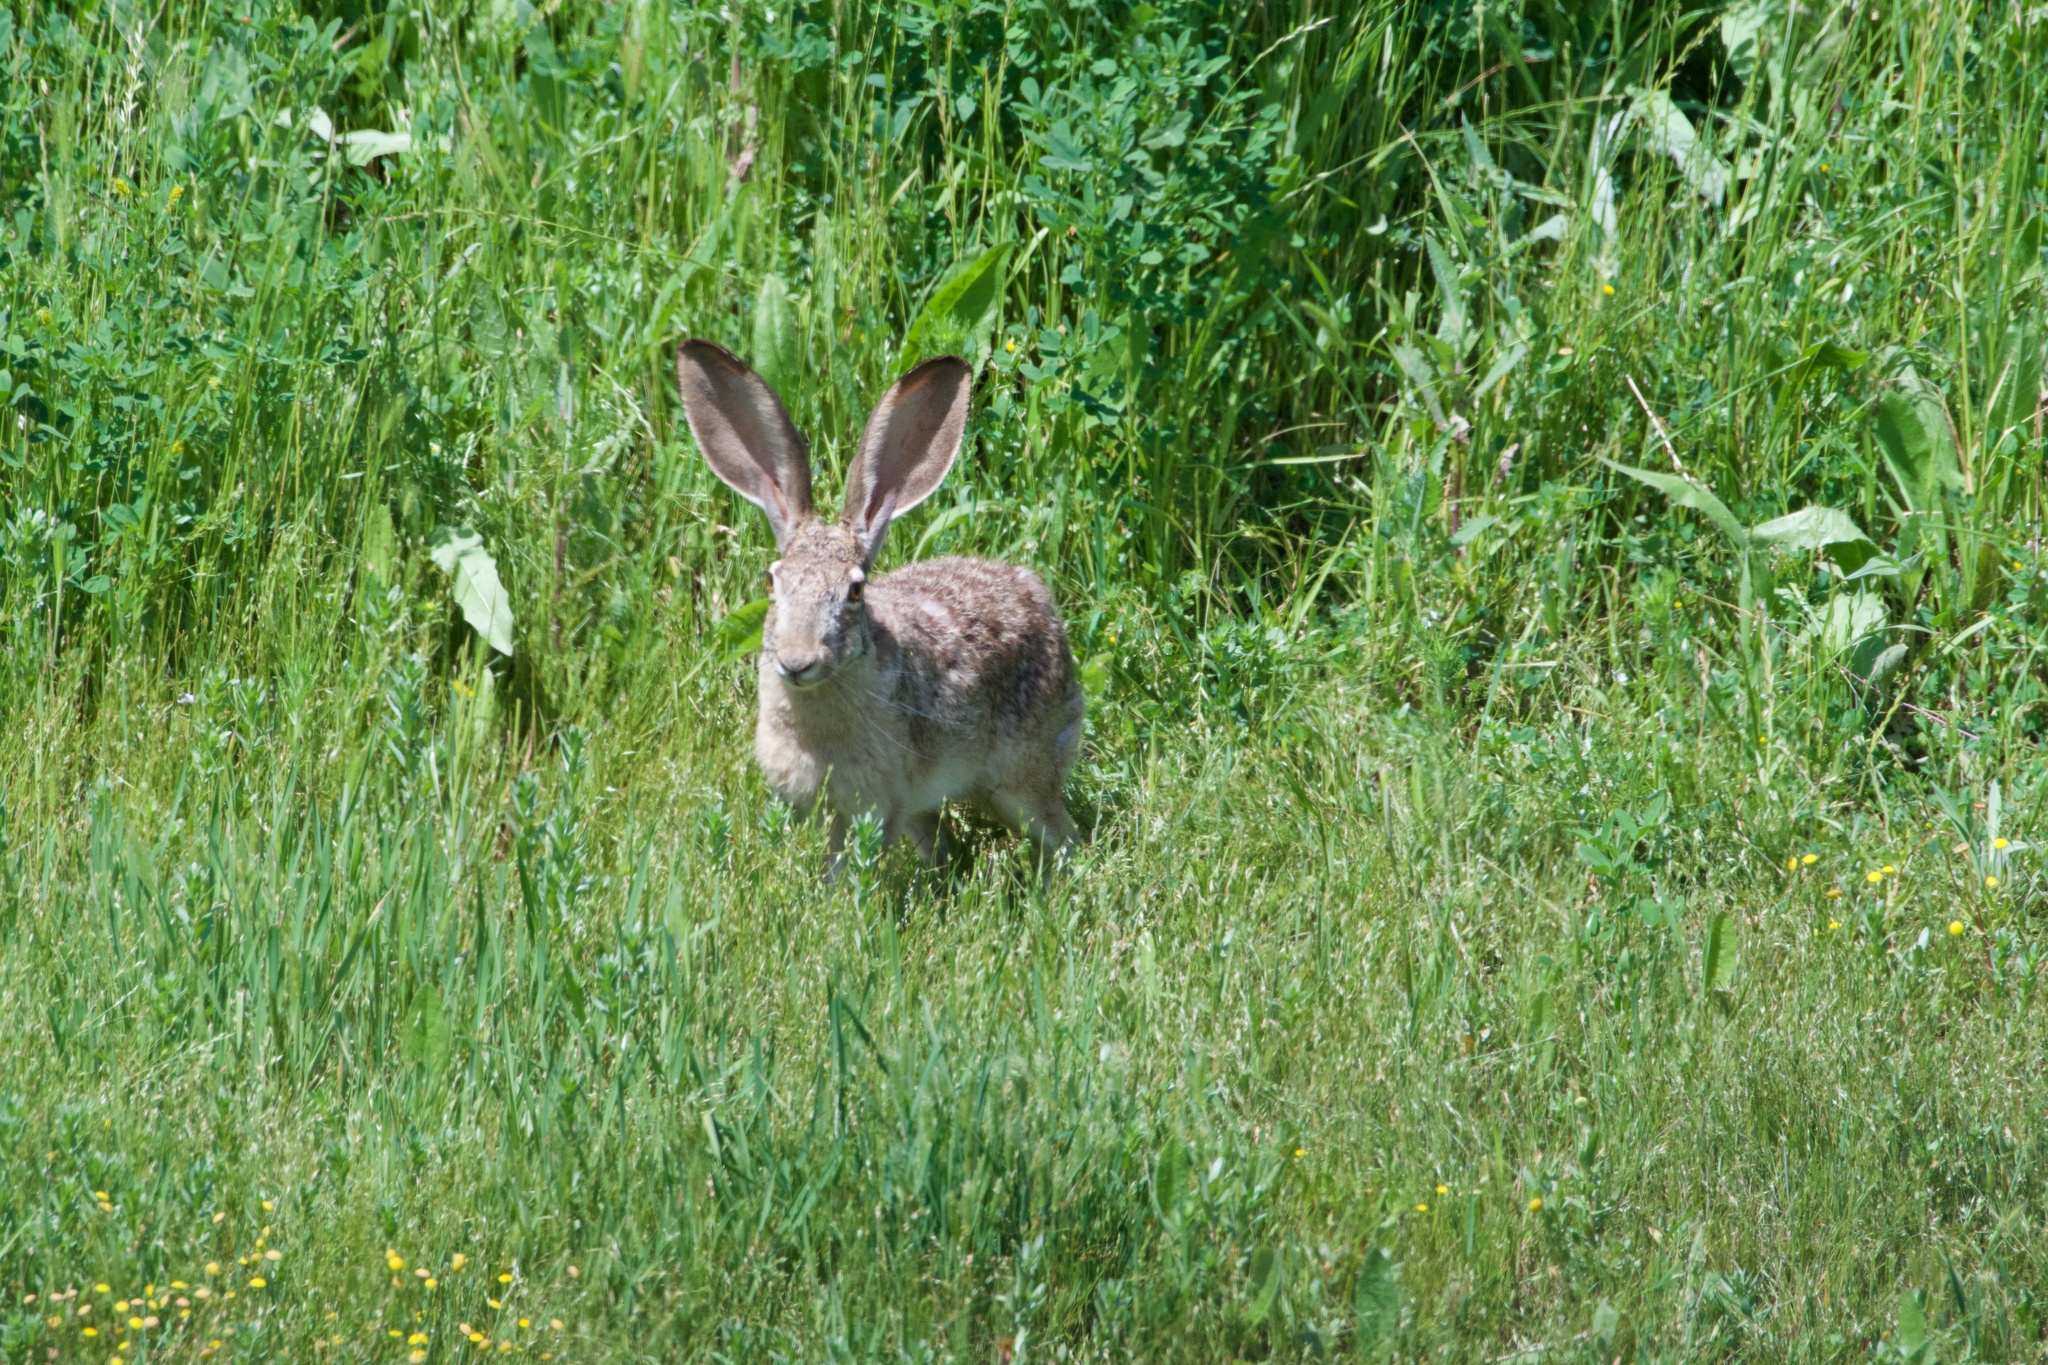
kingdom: Animalia
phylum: Chordata
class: Mammalia
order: Lagomorpha
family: Leporidae
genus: Lepus
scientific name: Lepus californicus
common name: Black-tailed jackrabbit
